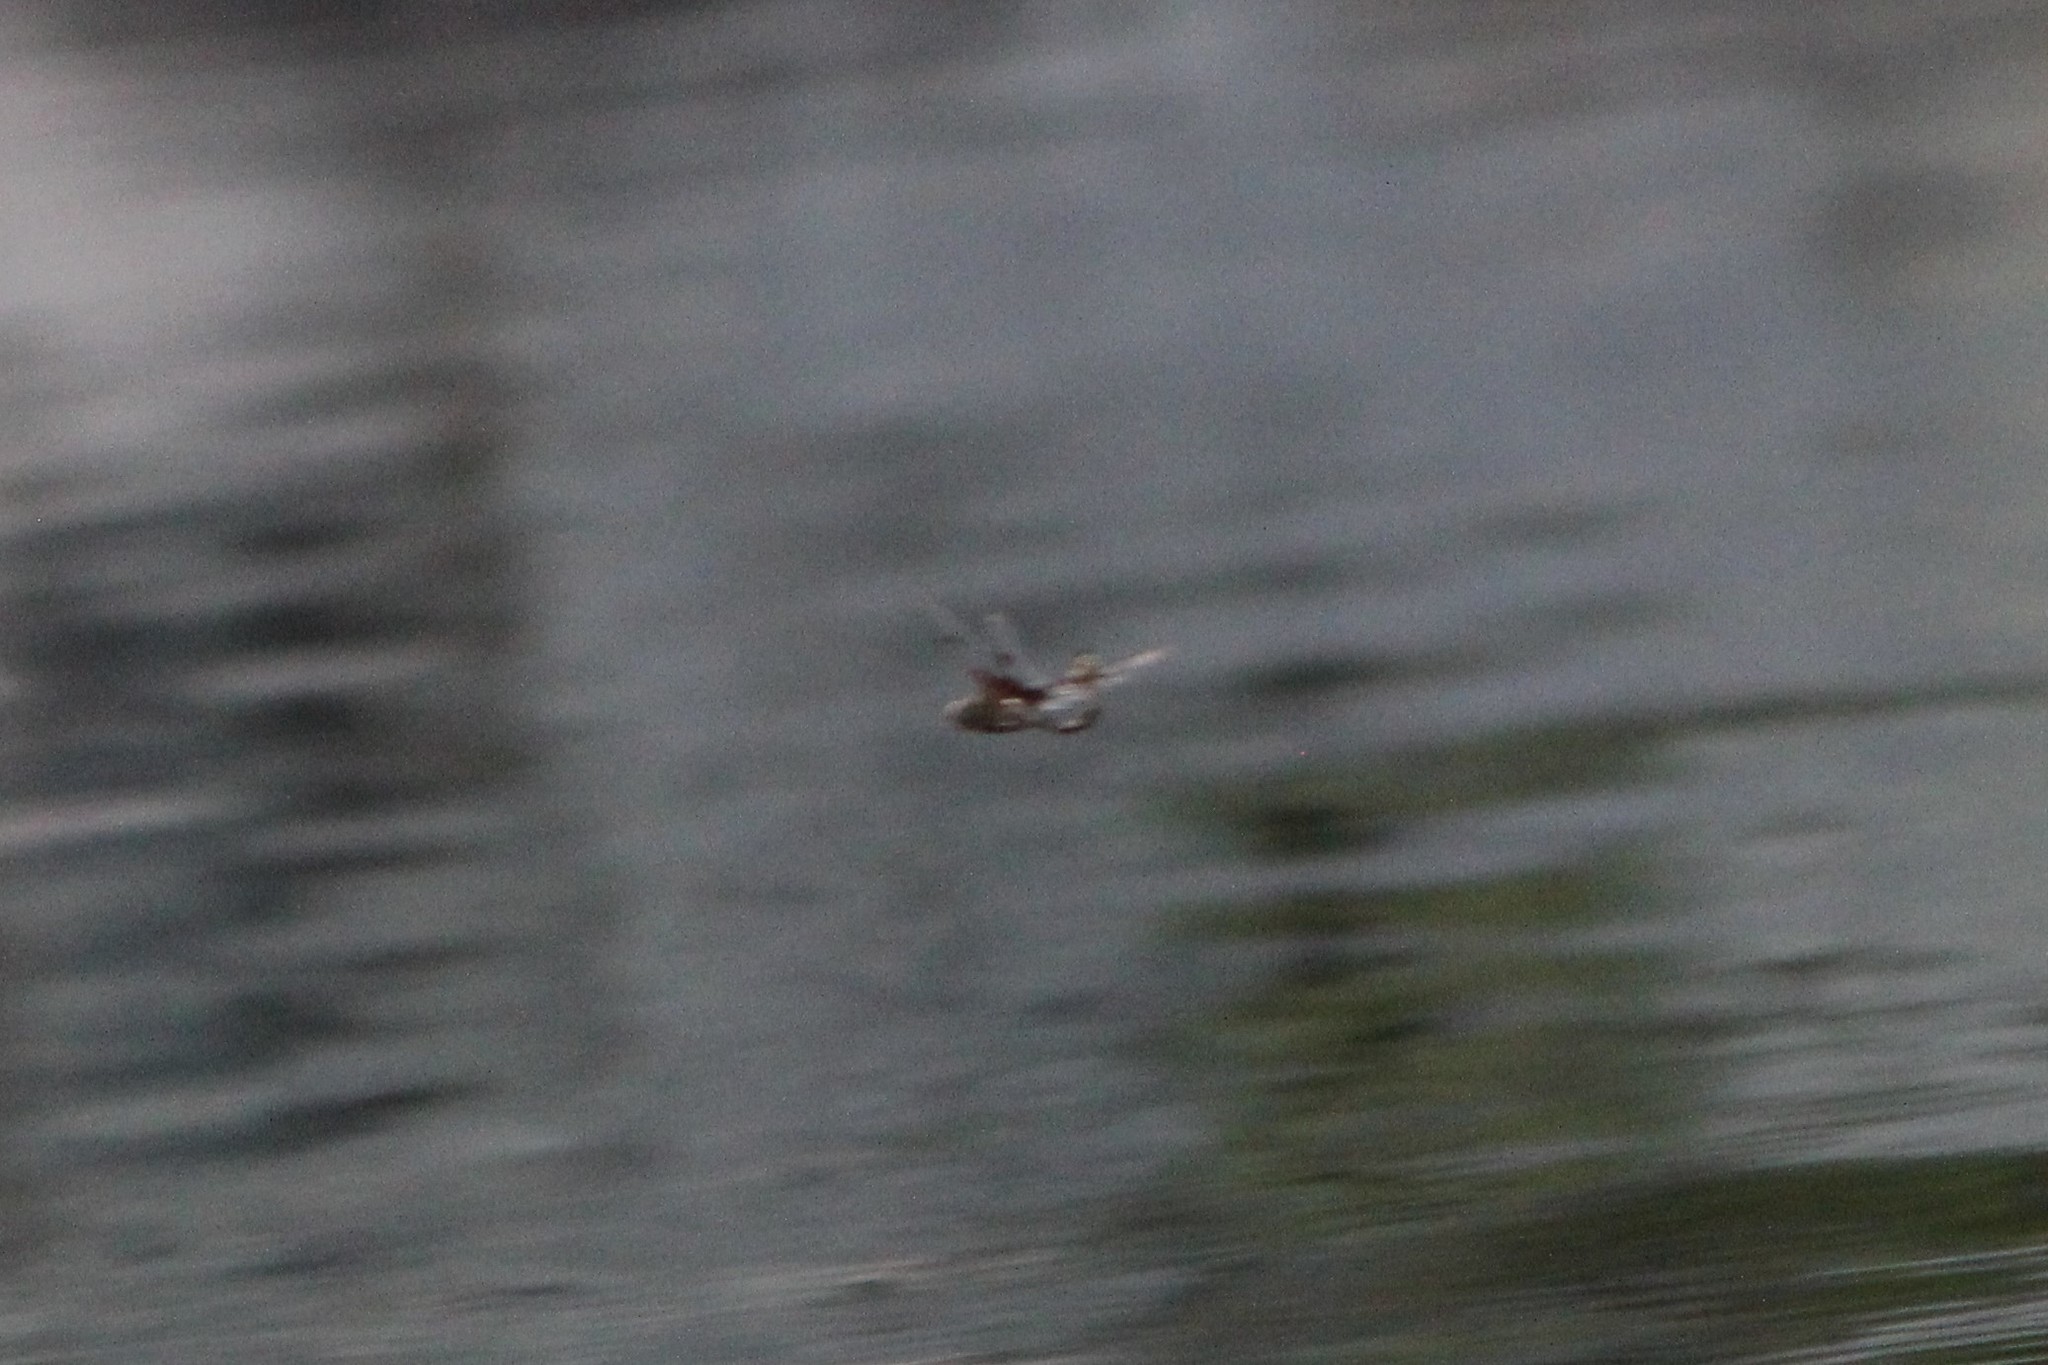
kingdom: Animalia
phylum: Arthropoda
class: Insecta
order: Odonata
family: Corduliidae
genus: Epitheca
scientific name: Epitheca princeps
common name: Prince baskettail
